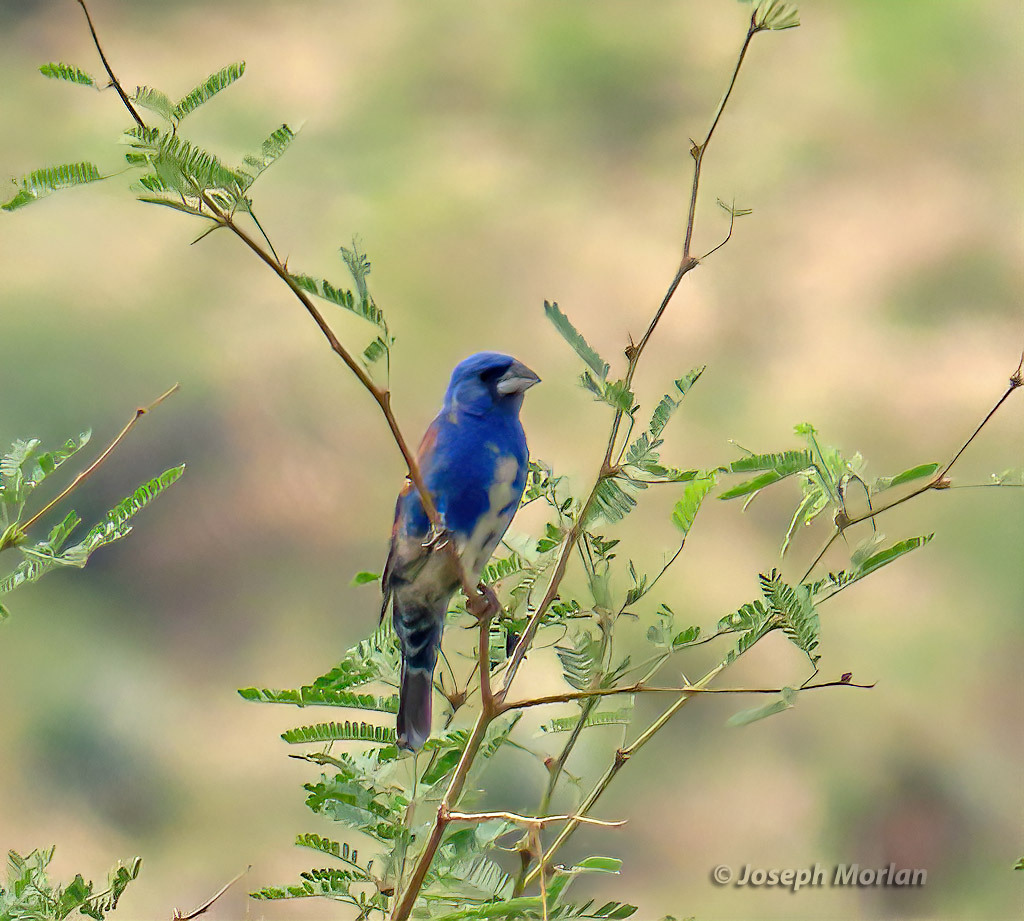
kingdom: Animalia
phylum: Chordata
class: Aves
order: Passeriformes
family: Cardinalidae
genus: Passerina
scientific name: Passerina caerulea
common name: Blue grosbeak
